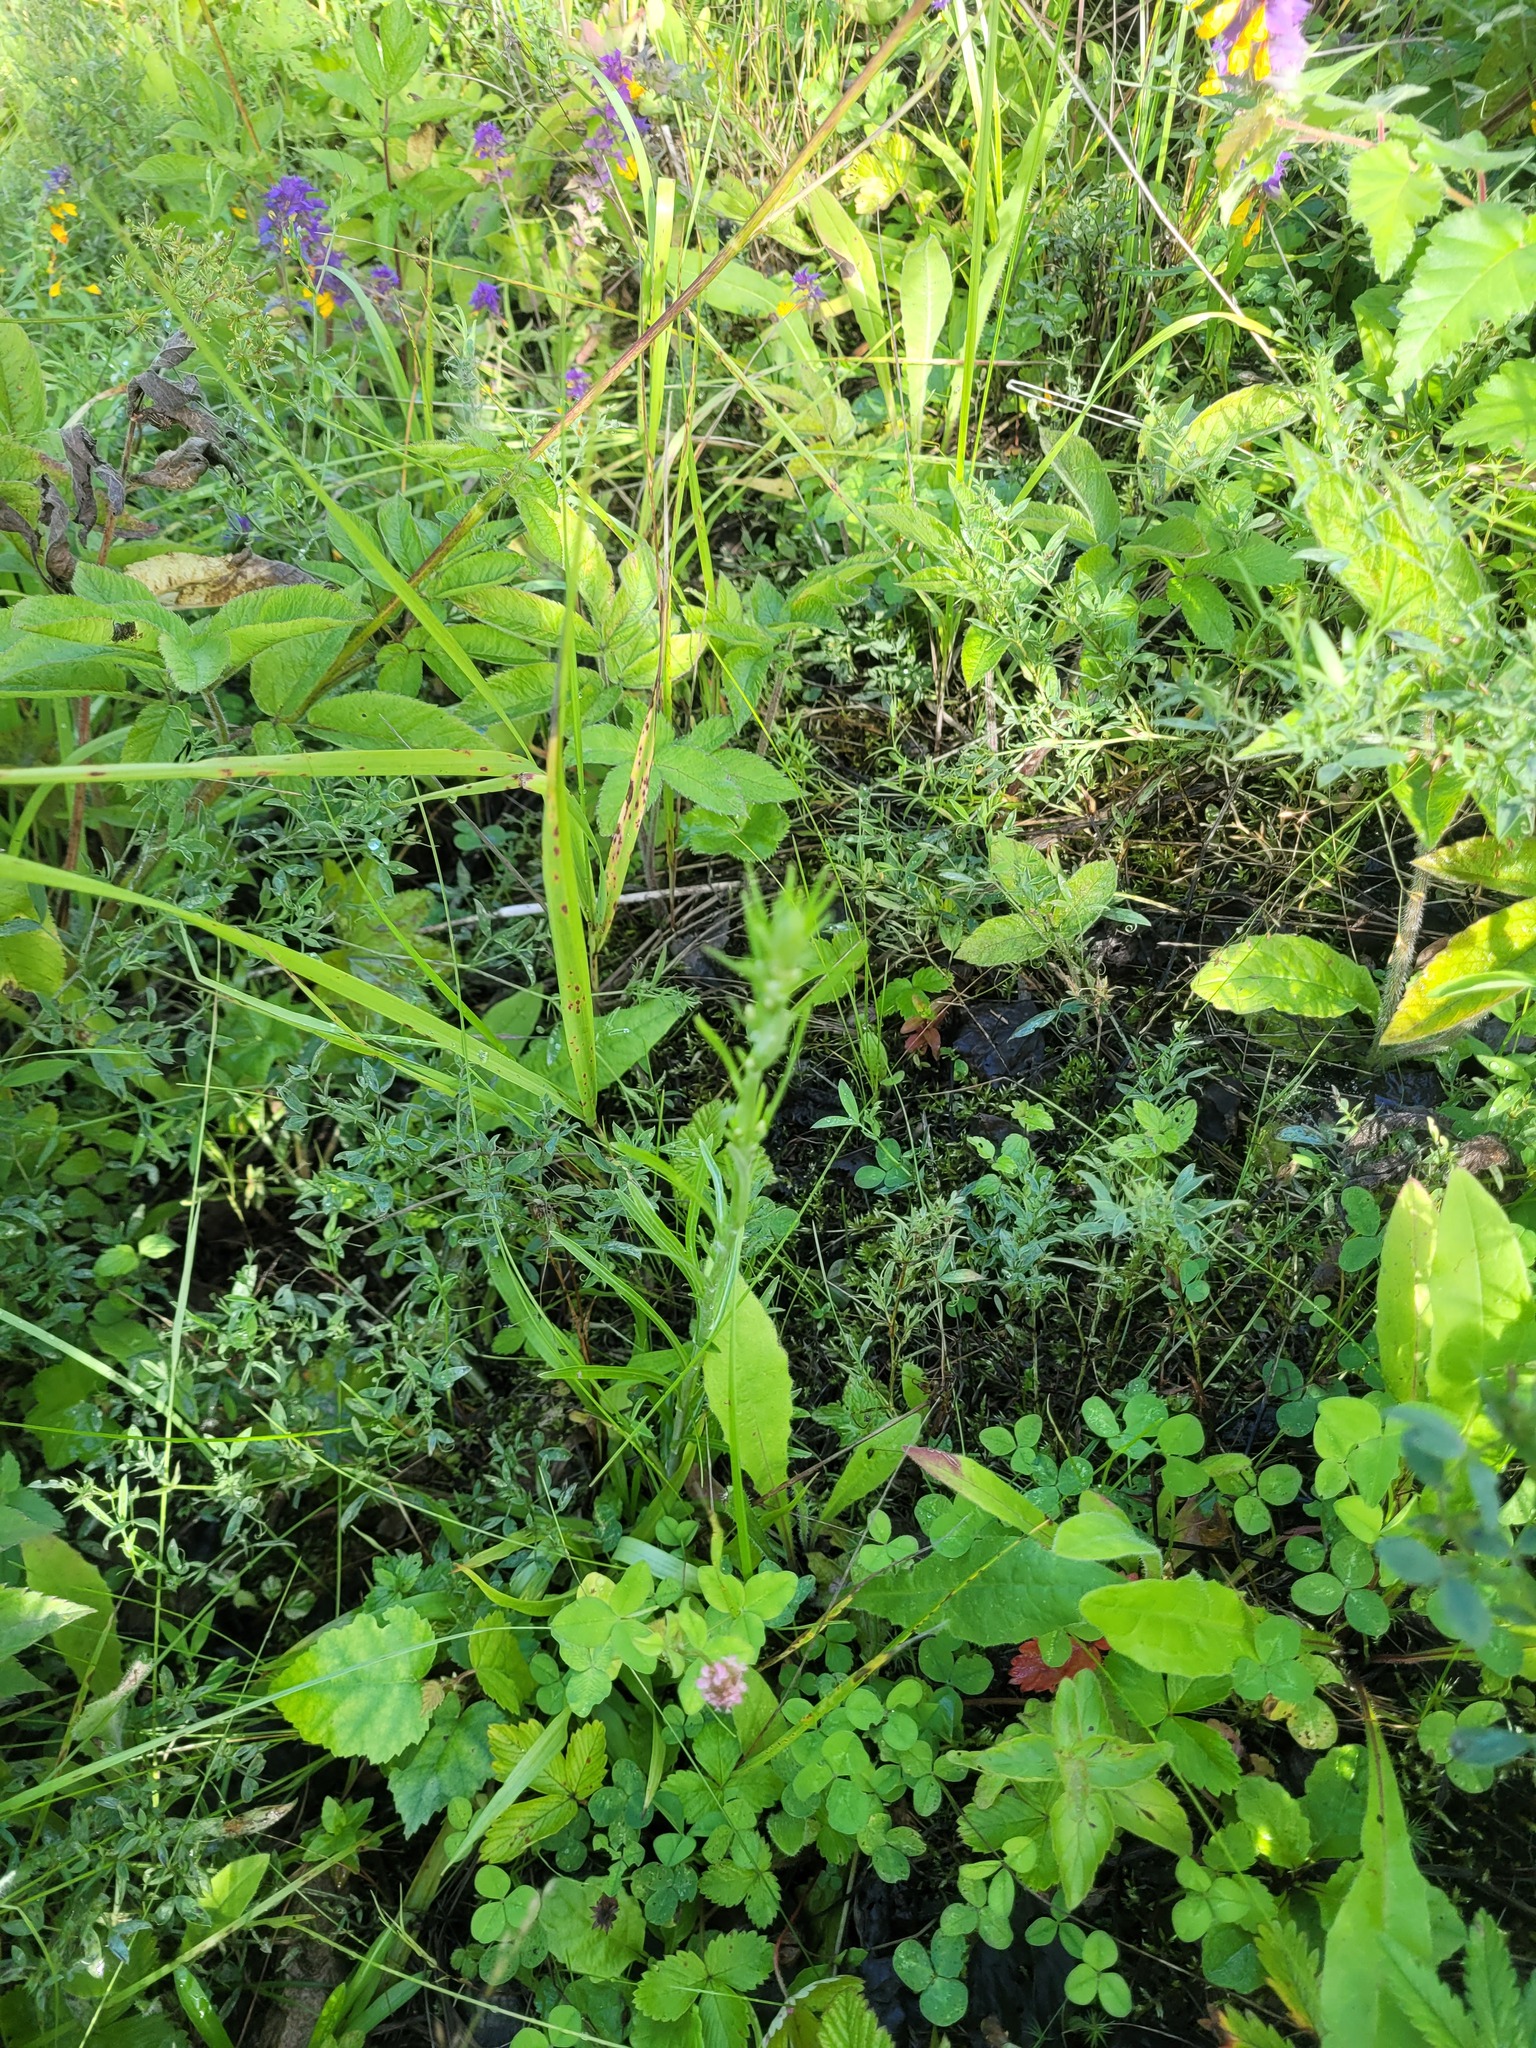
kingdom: Plantae
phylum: Tracheophyta
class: Magnoliopsida
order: Asterales
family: Asteraceae
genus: Omalotheca
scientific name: Omalotheca sylvatica
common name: Heath cudweed
